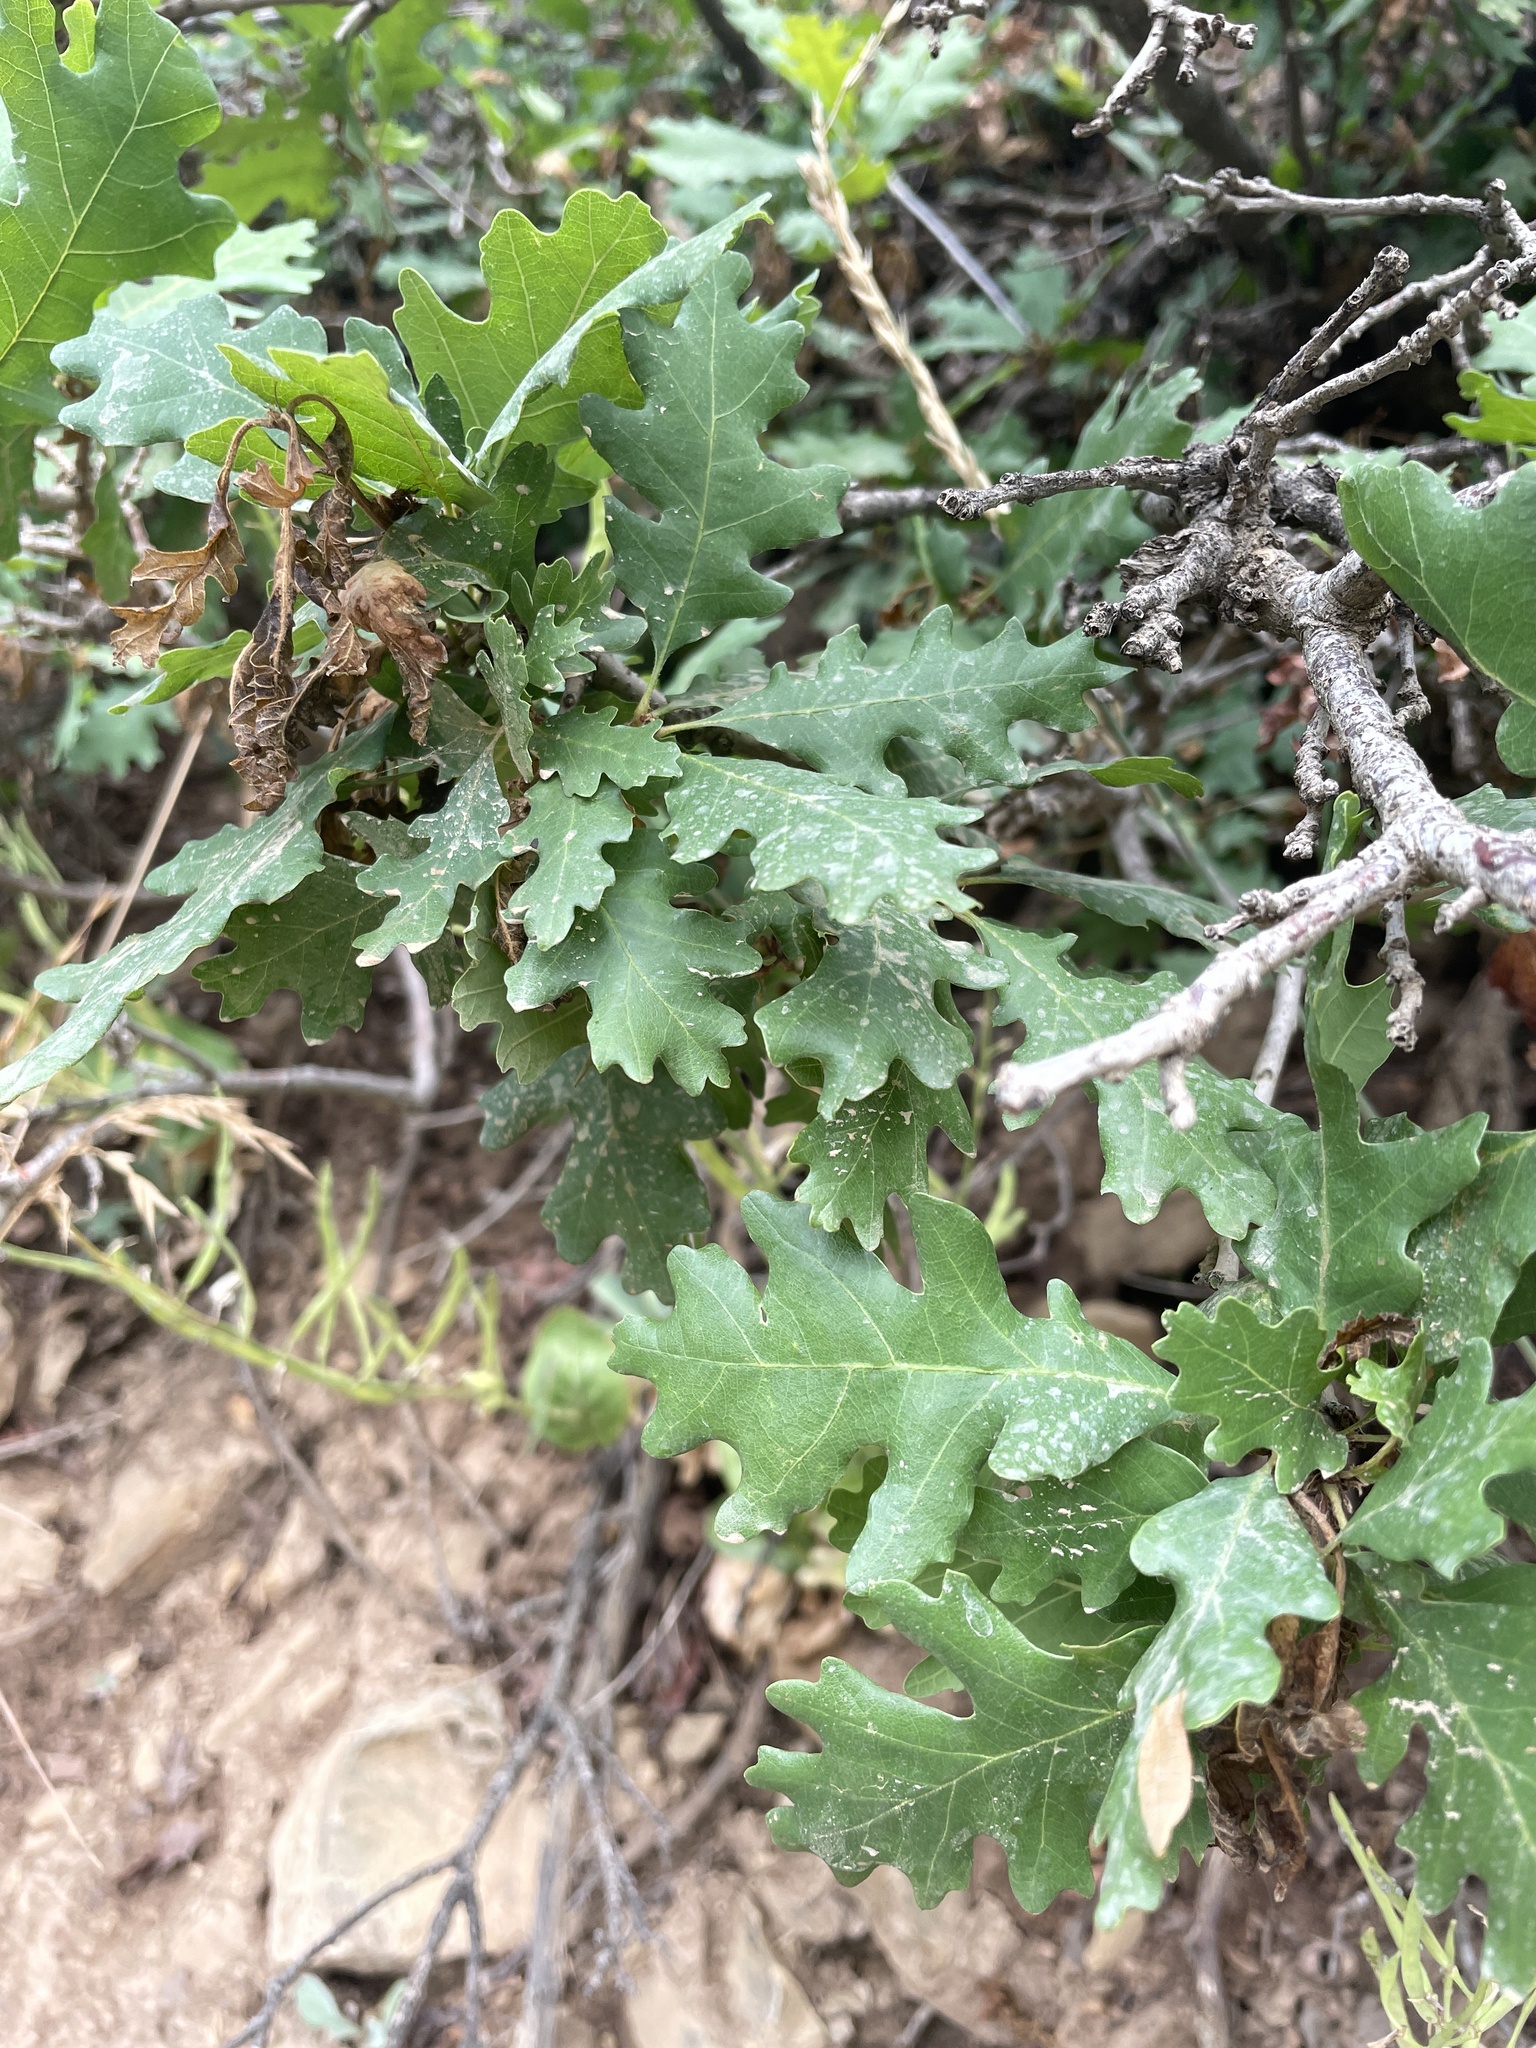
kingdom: Plantae
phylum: Tracheophyta
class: Magnoliopsida
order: Fagales
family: Fagaceae
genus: Quercus
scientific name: Quercus gambelii
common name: Gambel oak
